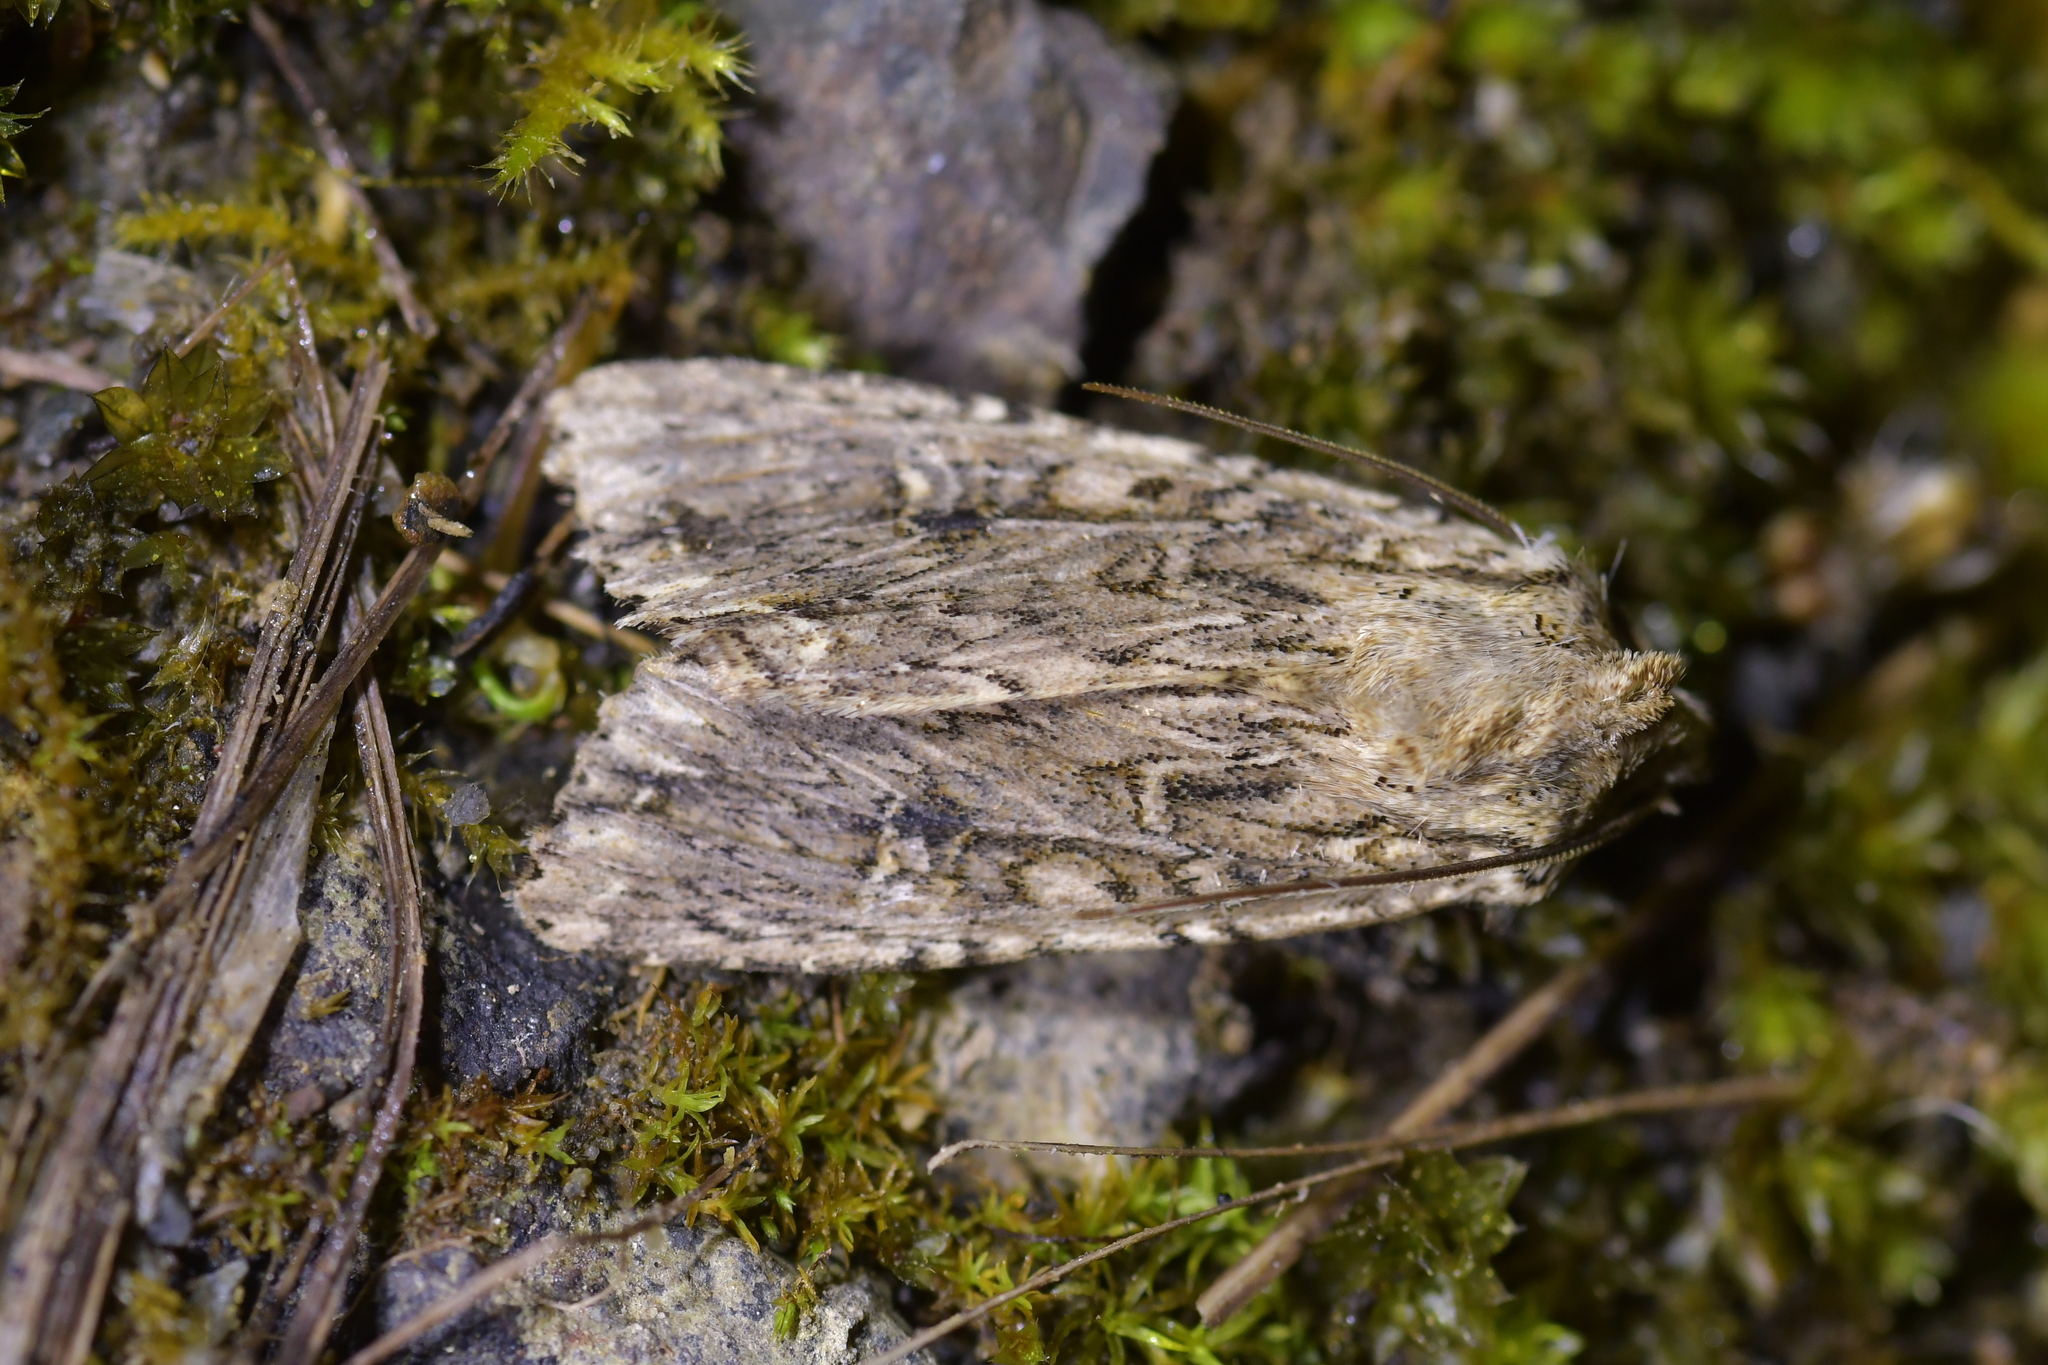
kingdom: Animalia
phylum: Arthropoda
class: Insecta
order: Lepidoptera
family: Noctuidae
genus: Ichneutica
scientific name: Ichneutica lignana
